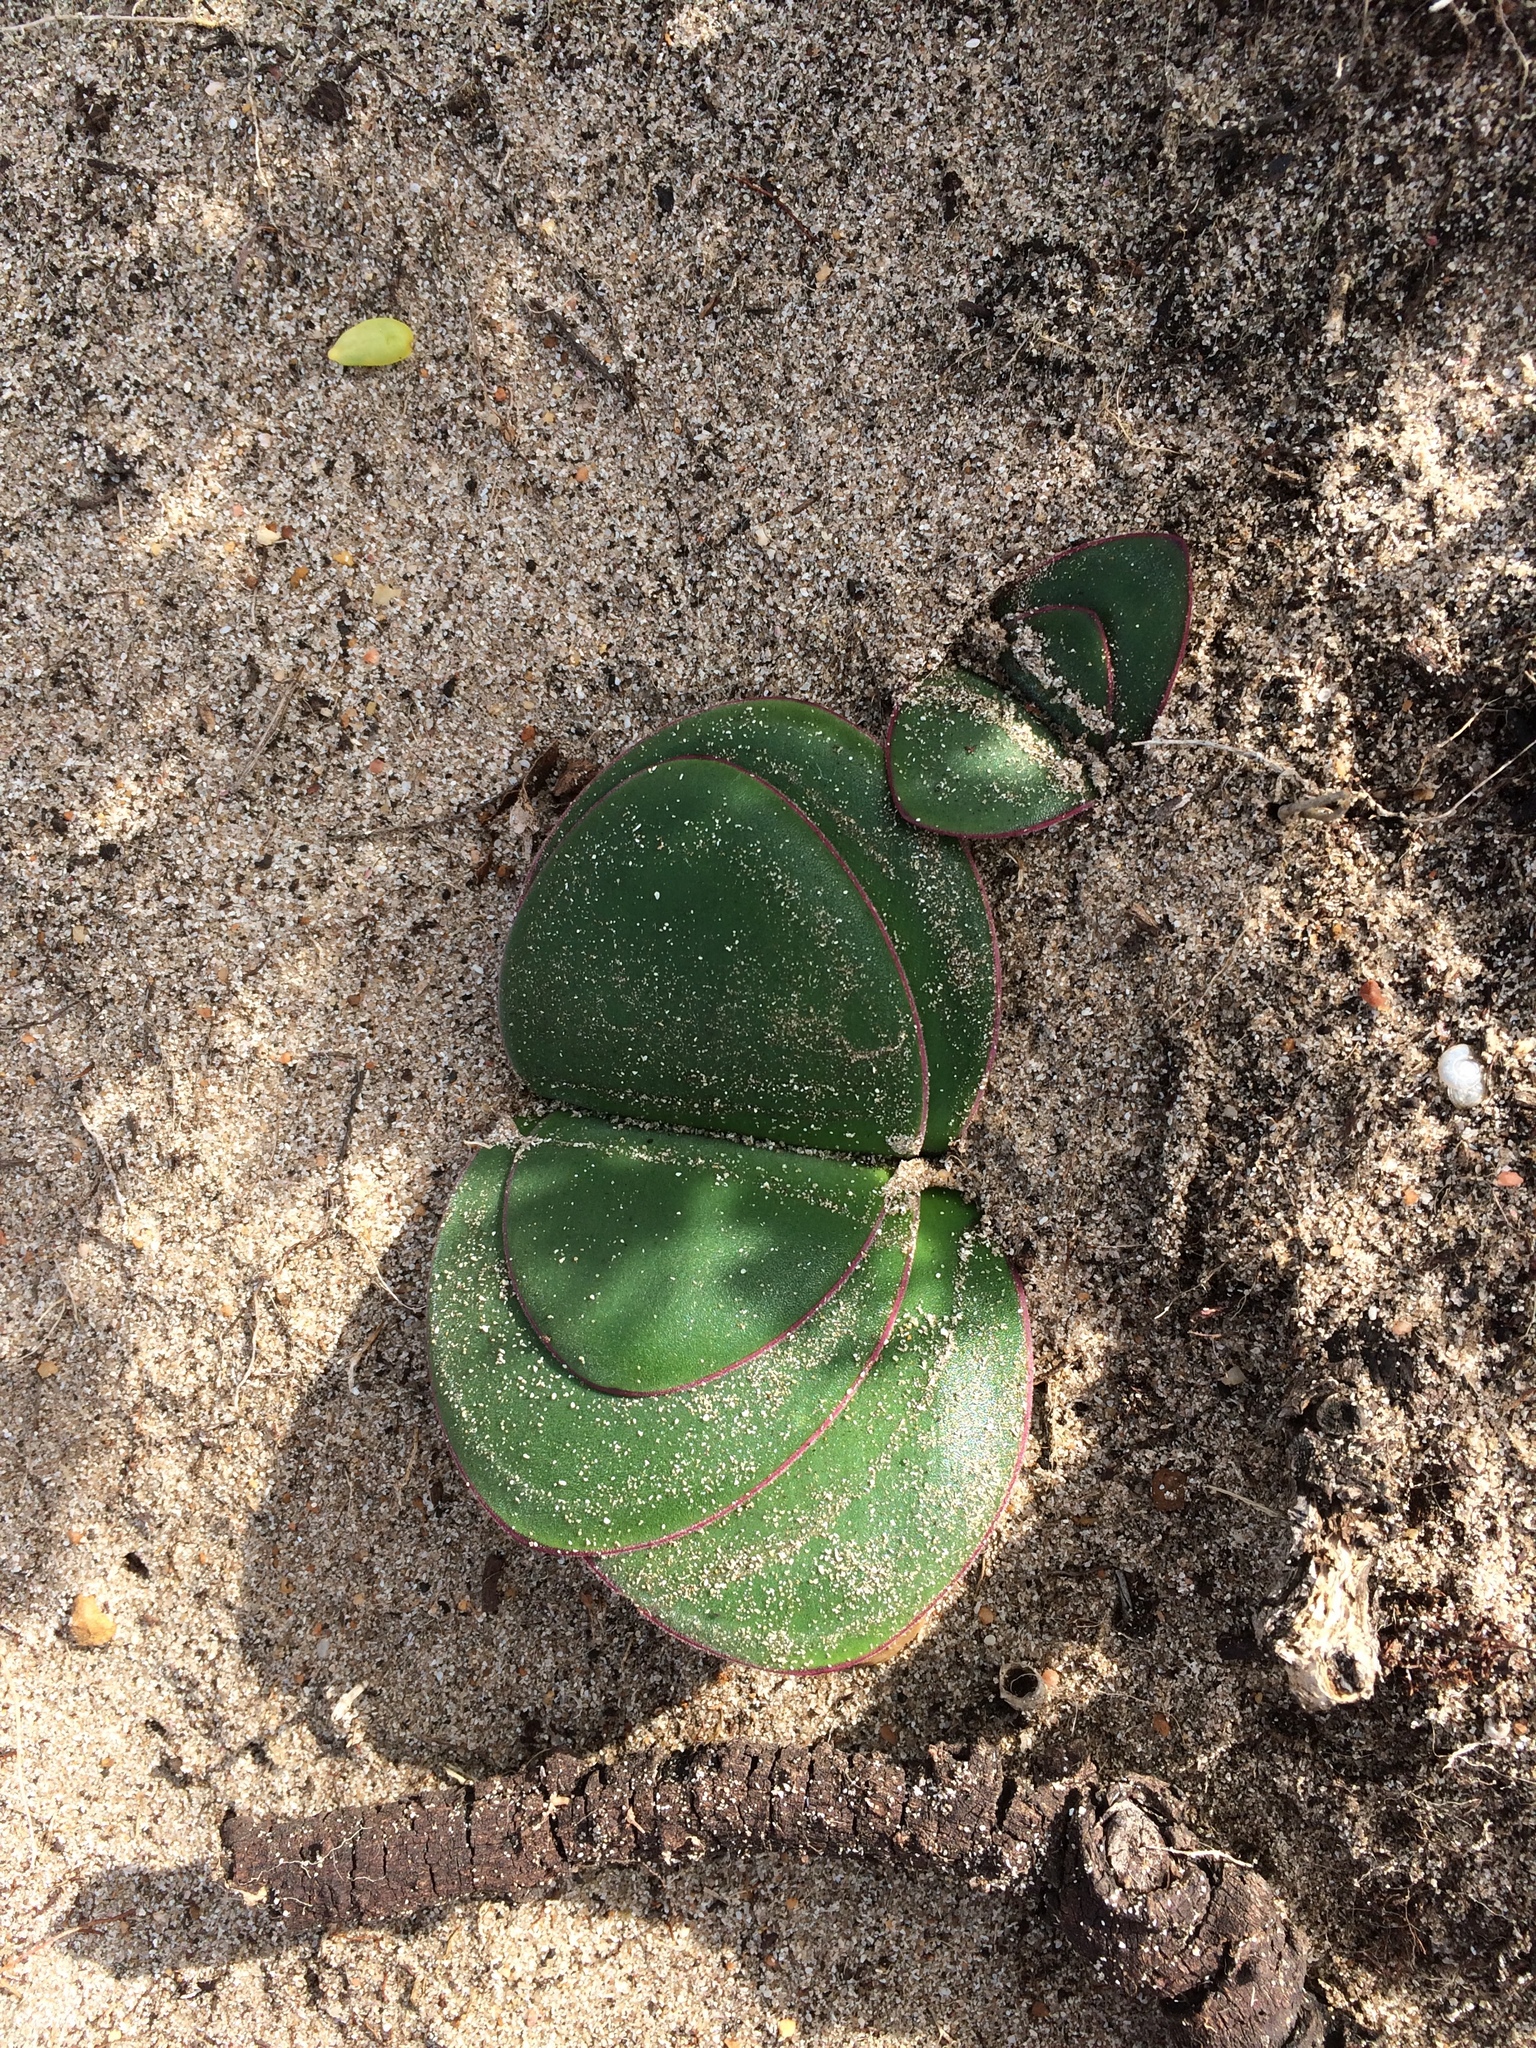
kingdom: Plantae
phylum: Tracheophyta
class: Liliopsida
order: Asparagales
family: Amaryllidaceae
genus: Brunsvigia
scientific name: Brunsvigia orientalis
